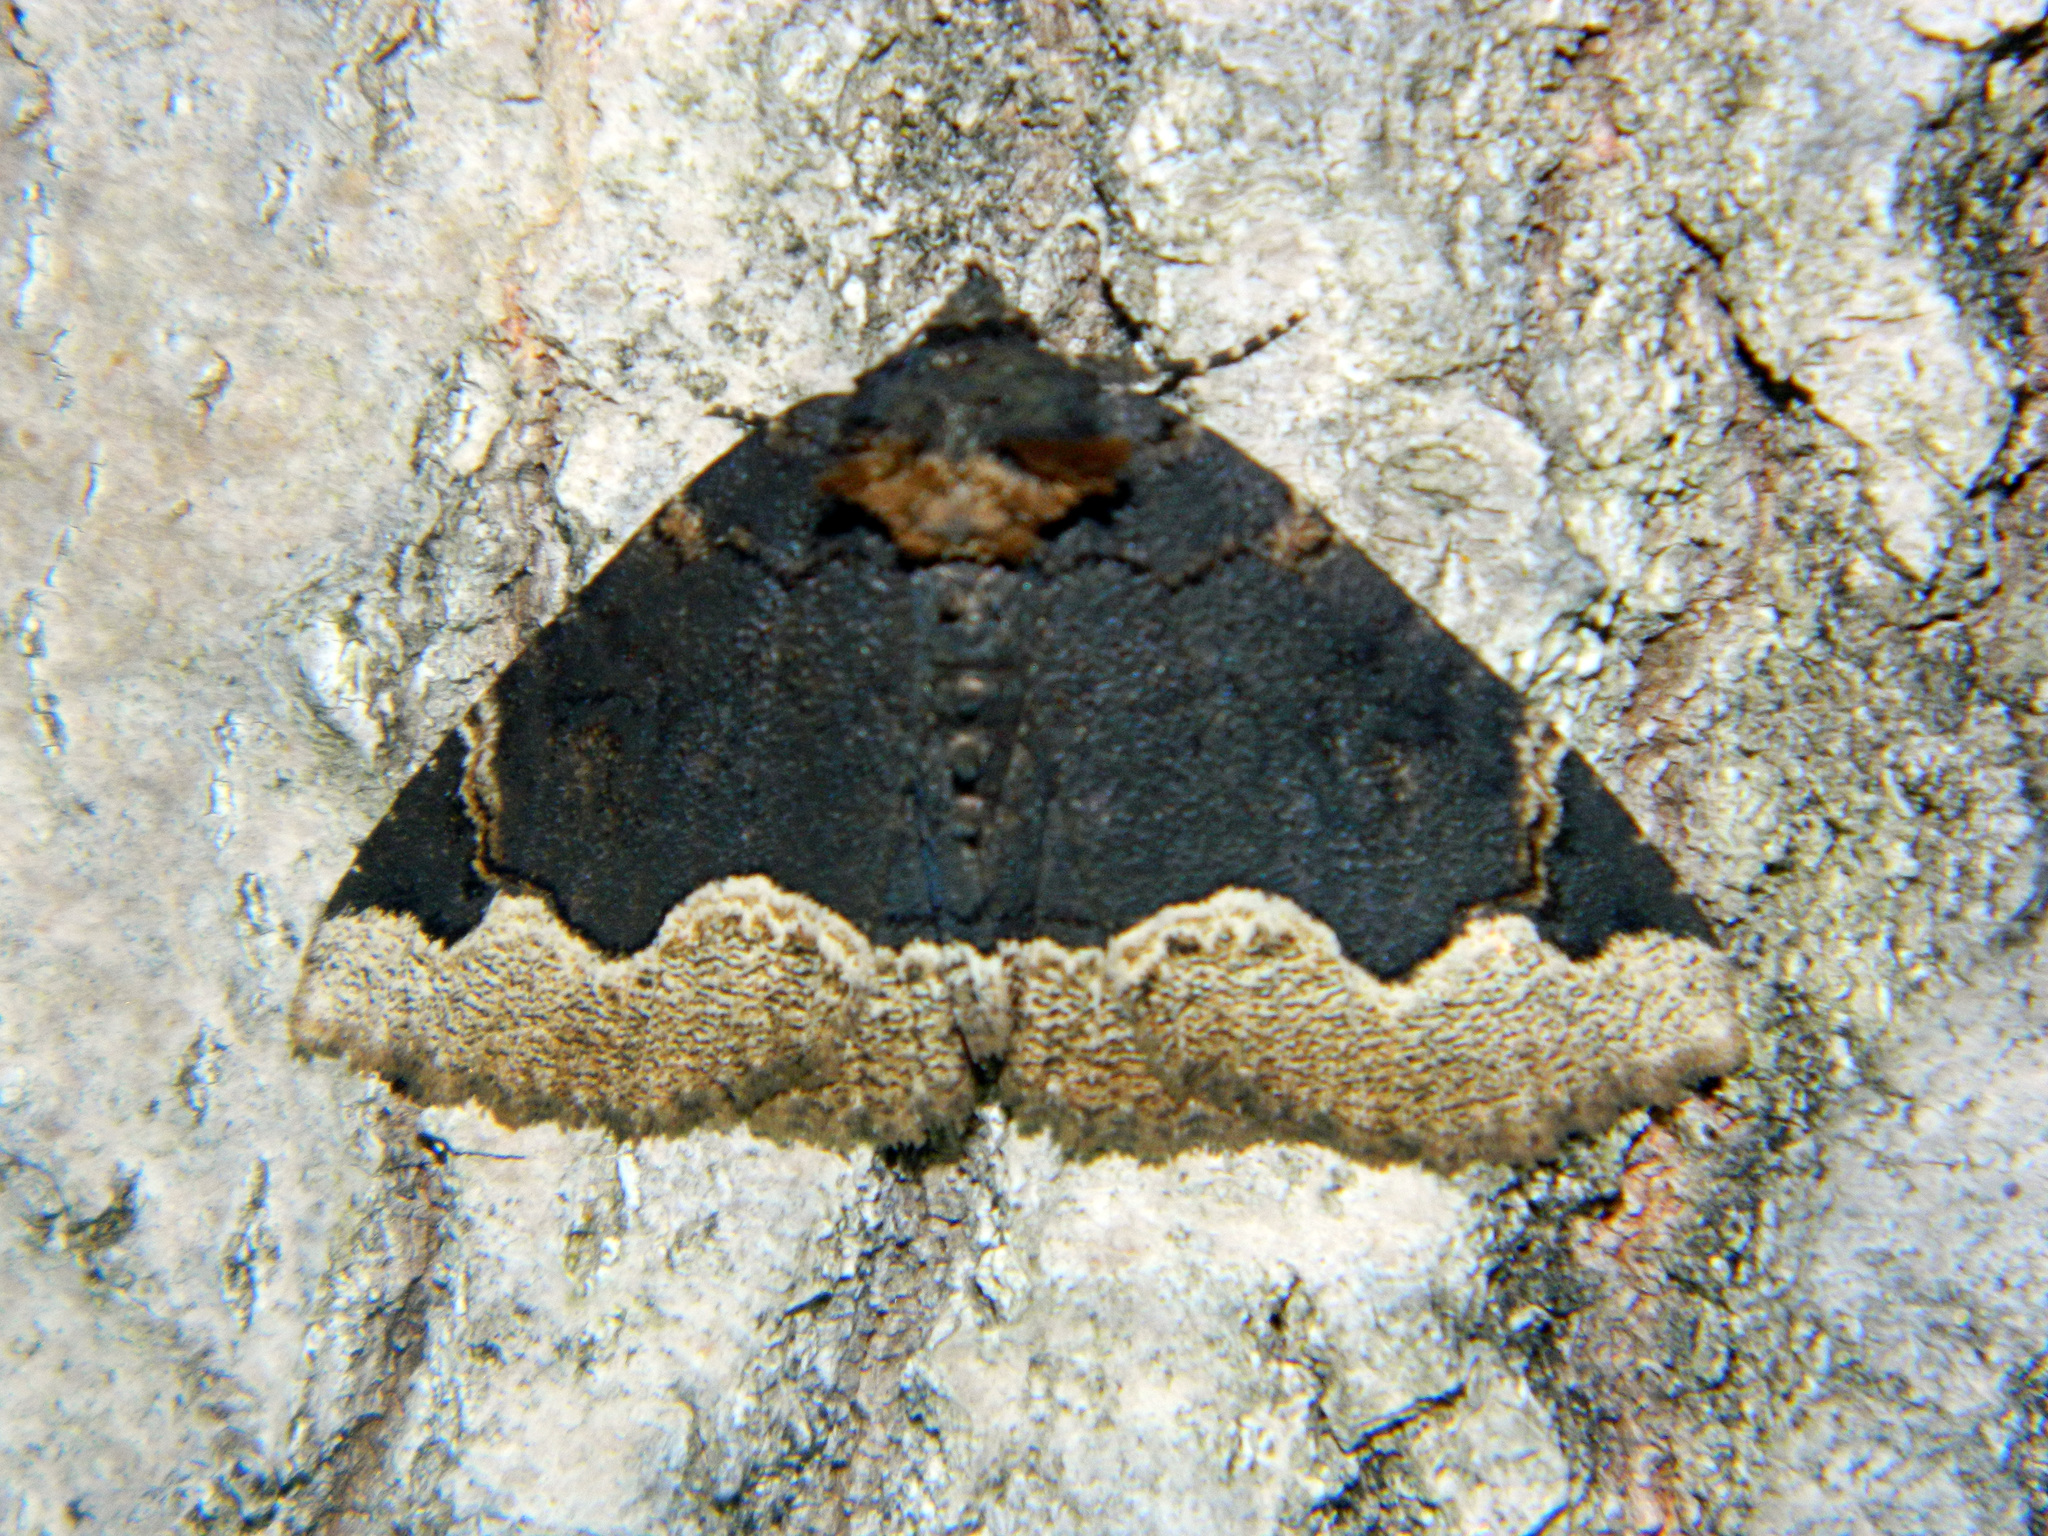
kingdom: Animalia
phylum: Arthropoda
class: Insecta
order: Lepidoptera
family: Erebidae
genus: Zale
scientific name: Zale horrida
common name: Horrid zale moth
